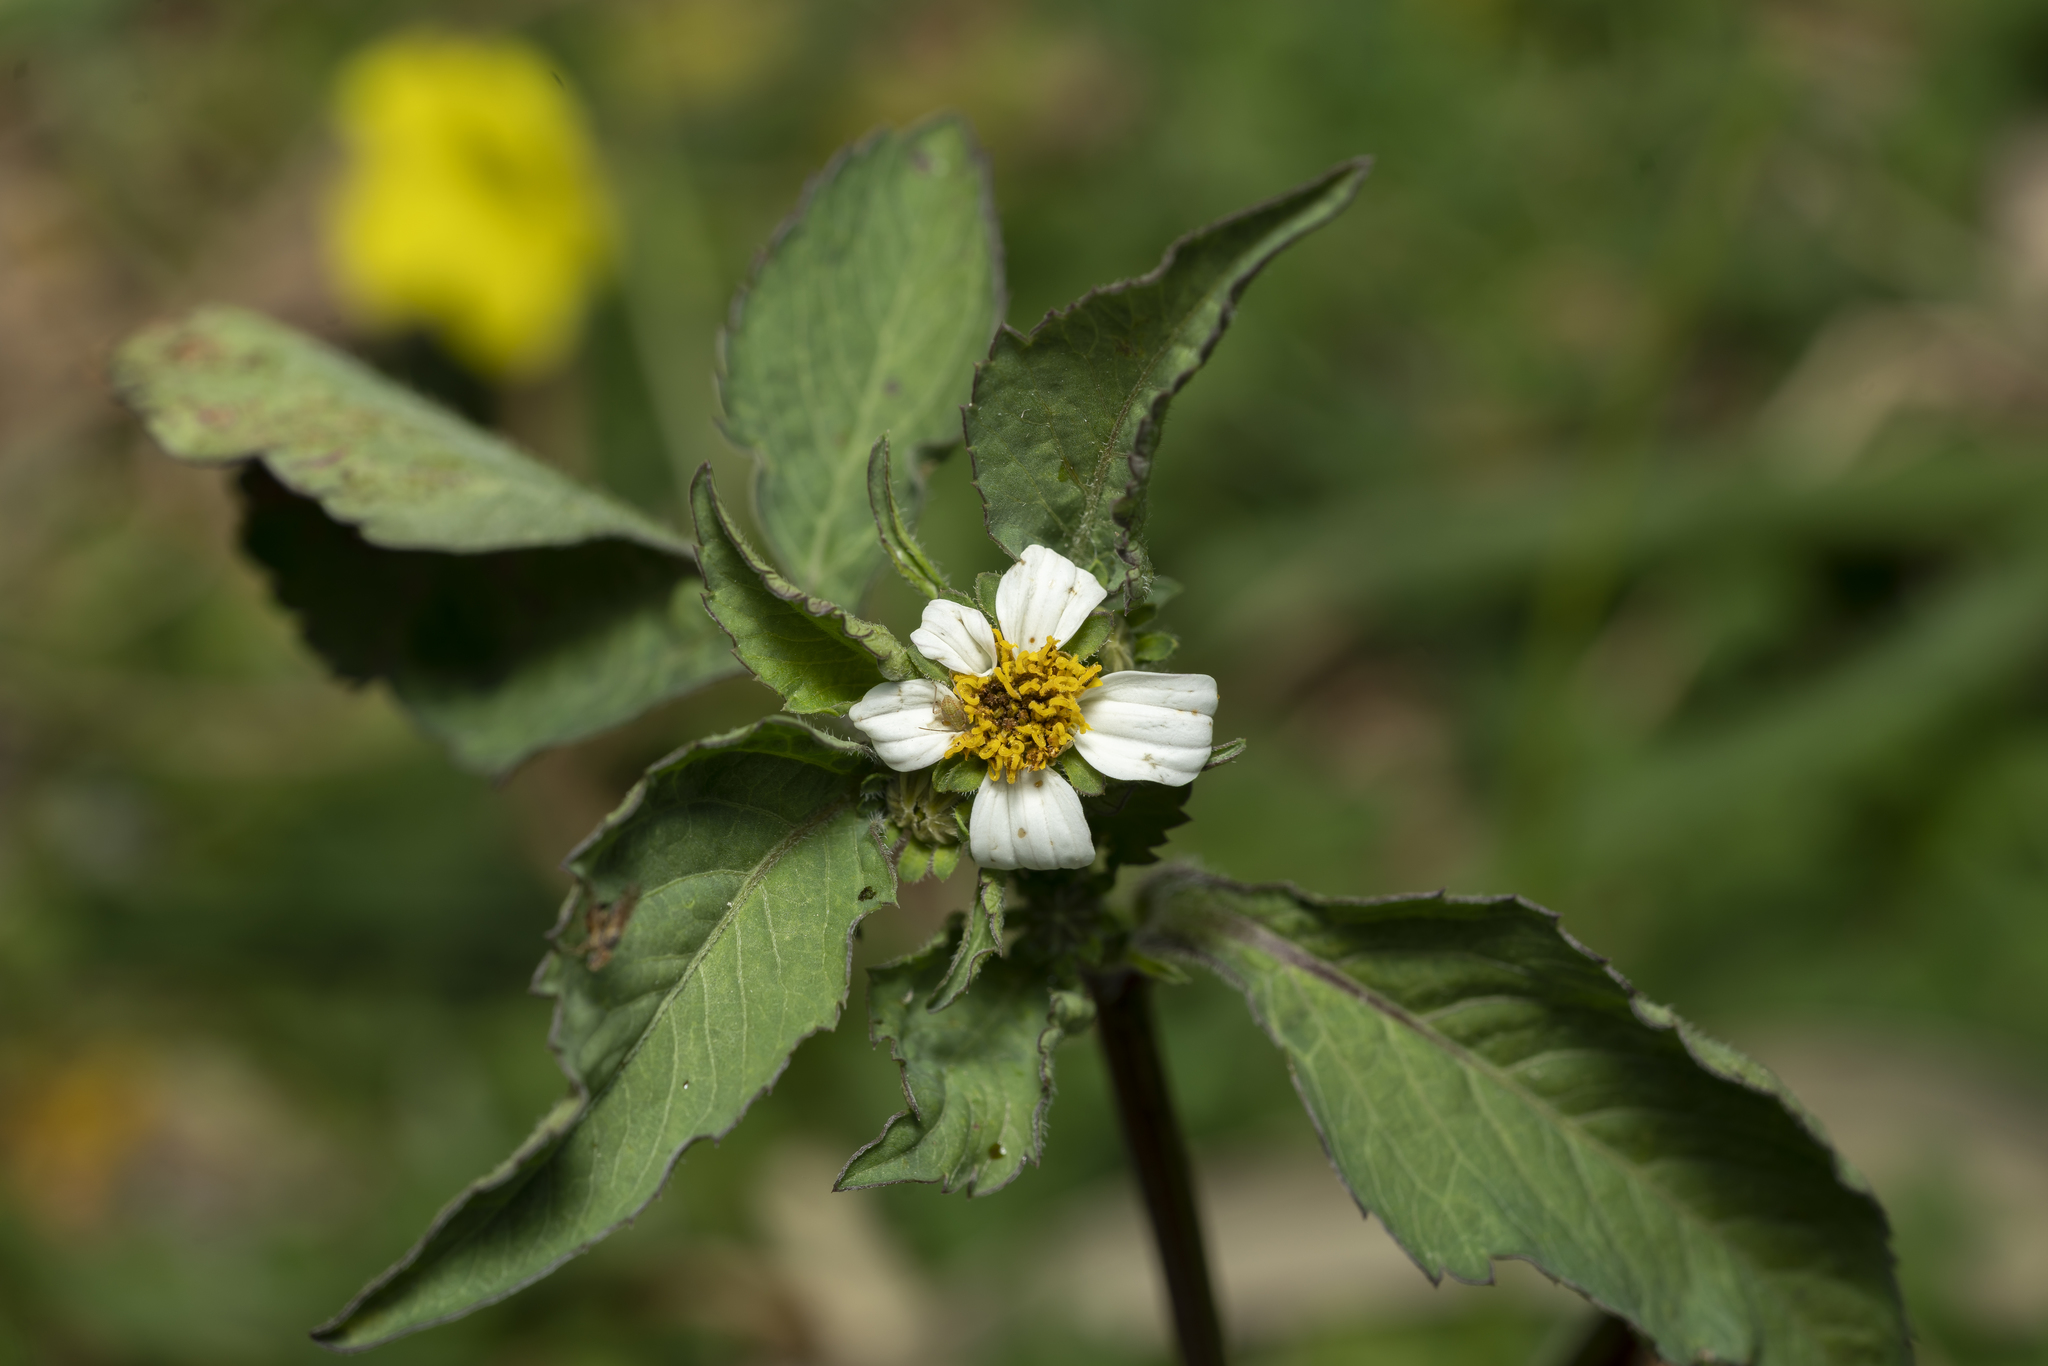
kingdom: Plantae
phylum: Tracheophyta
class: Magnoliopsida
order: Asterales
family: Asteraceae
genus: Bidens
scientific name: Bidens alba
